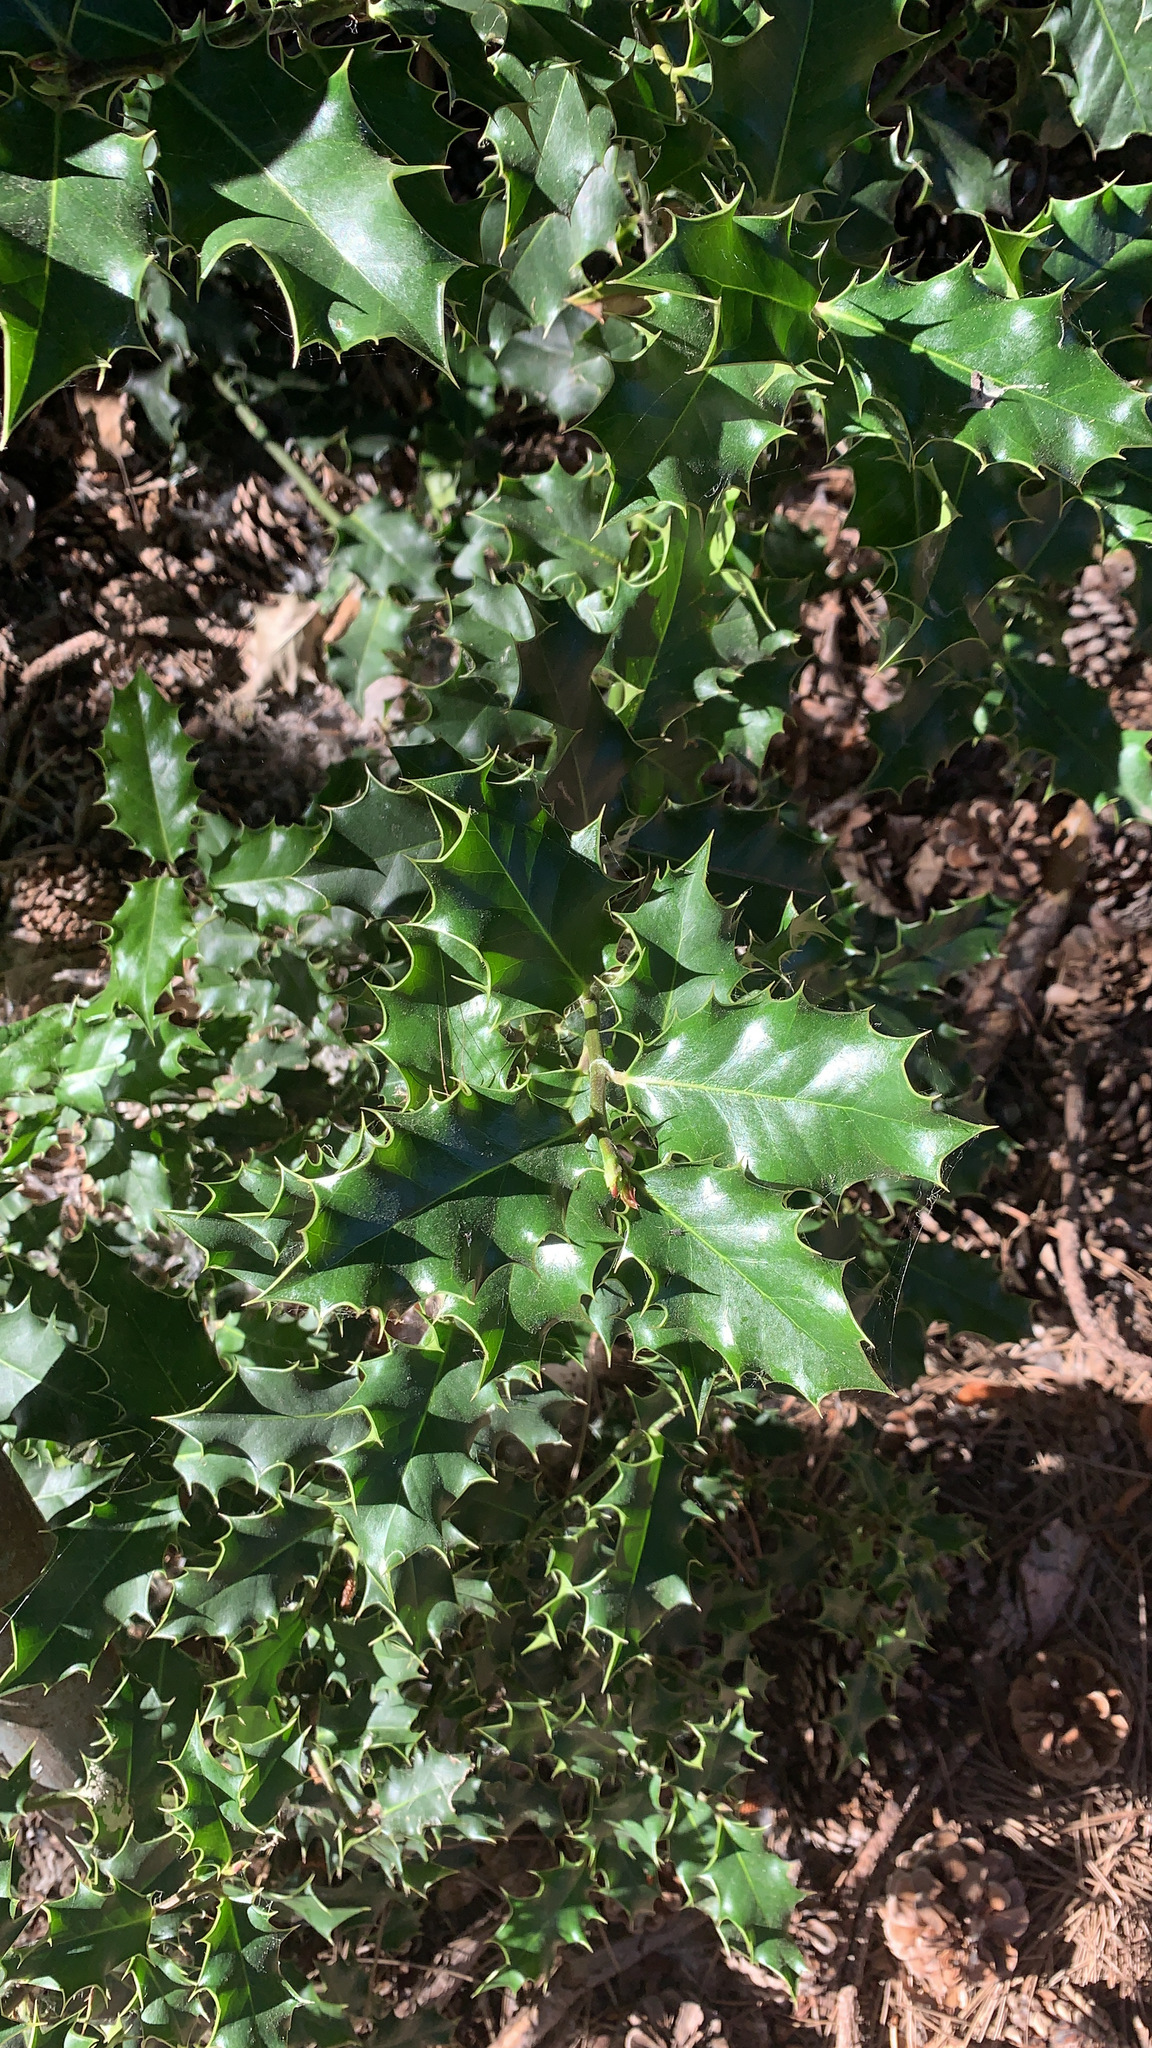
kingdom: Plantae
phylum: Tracheophyta
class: Magnoliopsida
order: Aquifoliales
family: Aquifoliaceae
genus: Ilex
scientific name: Ilex aquifolium
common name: English holly
